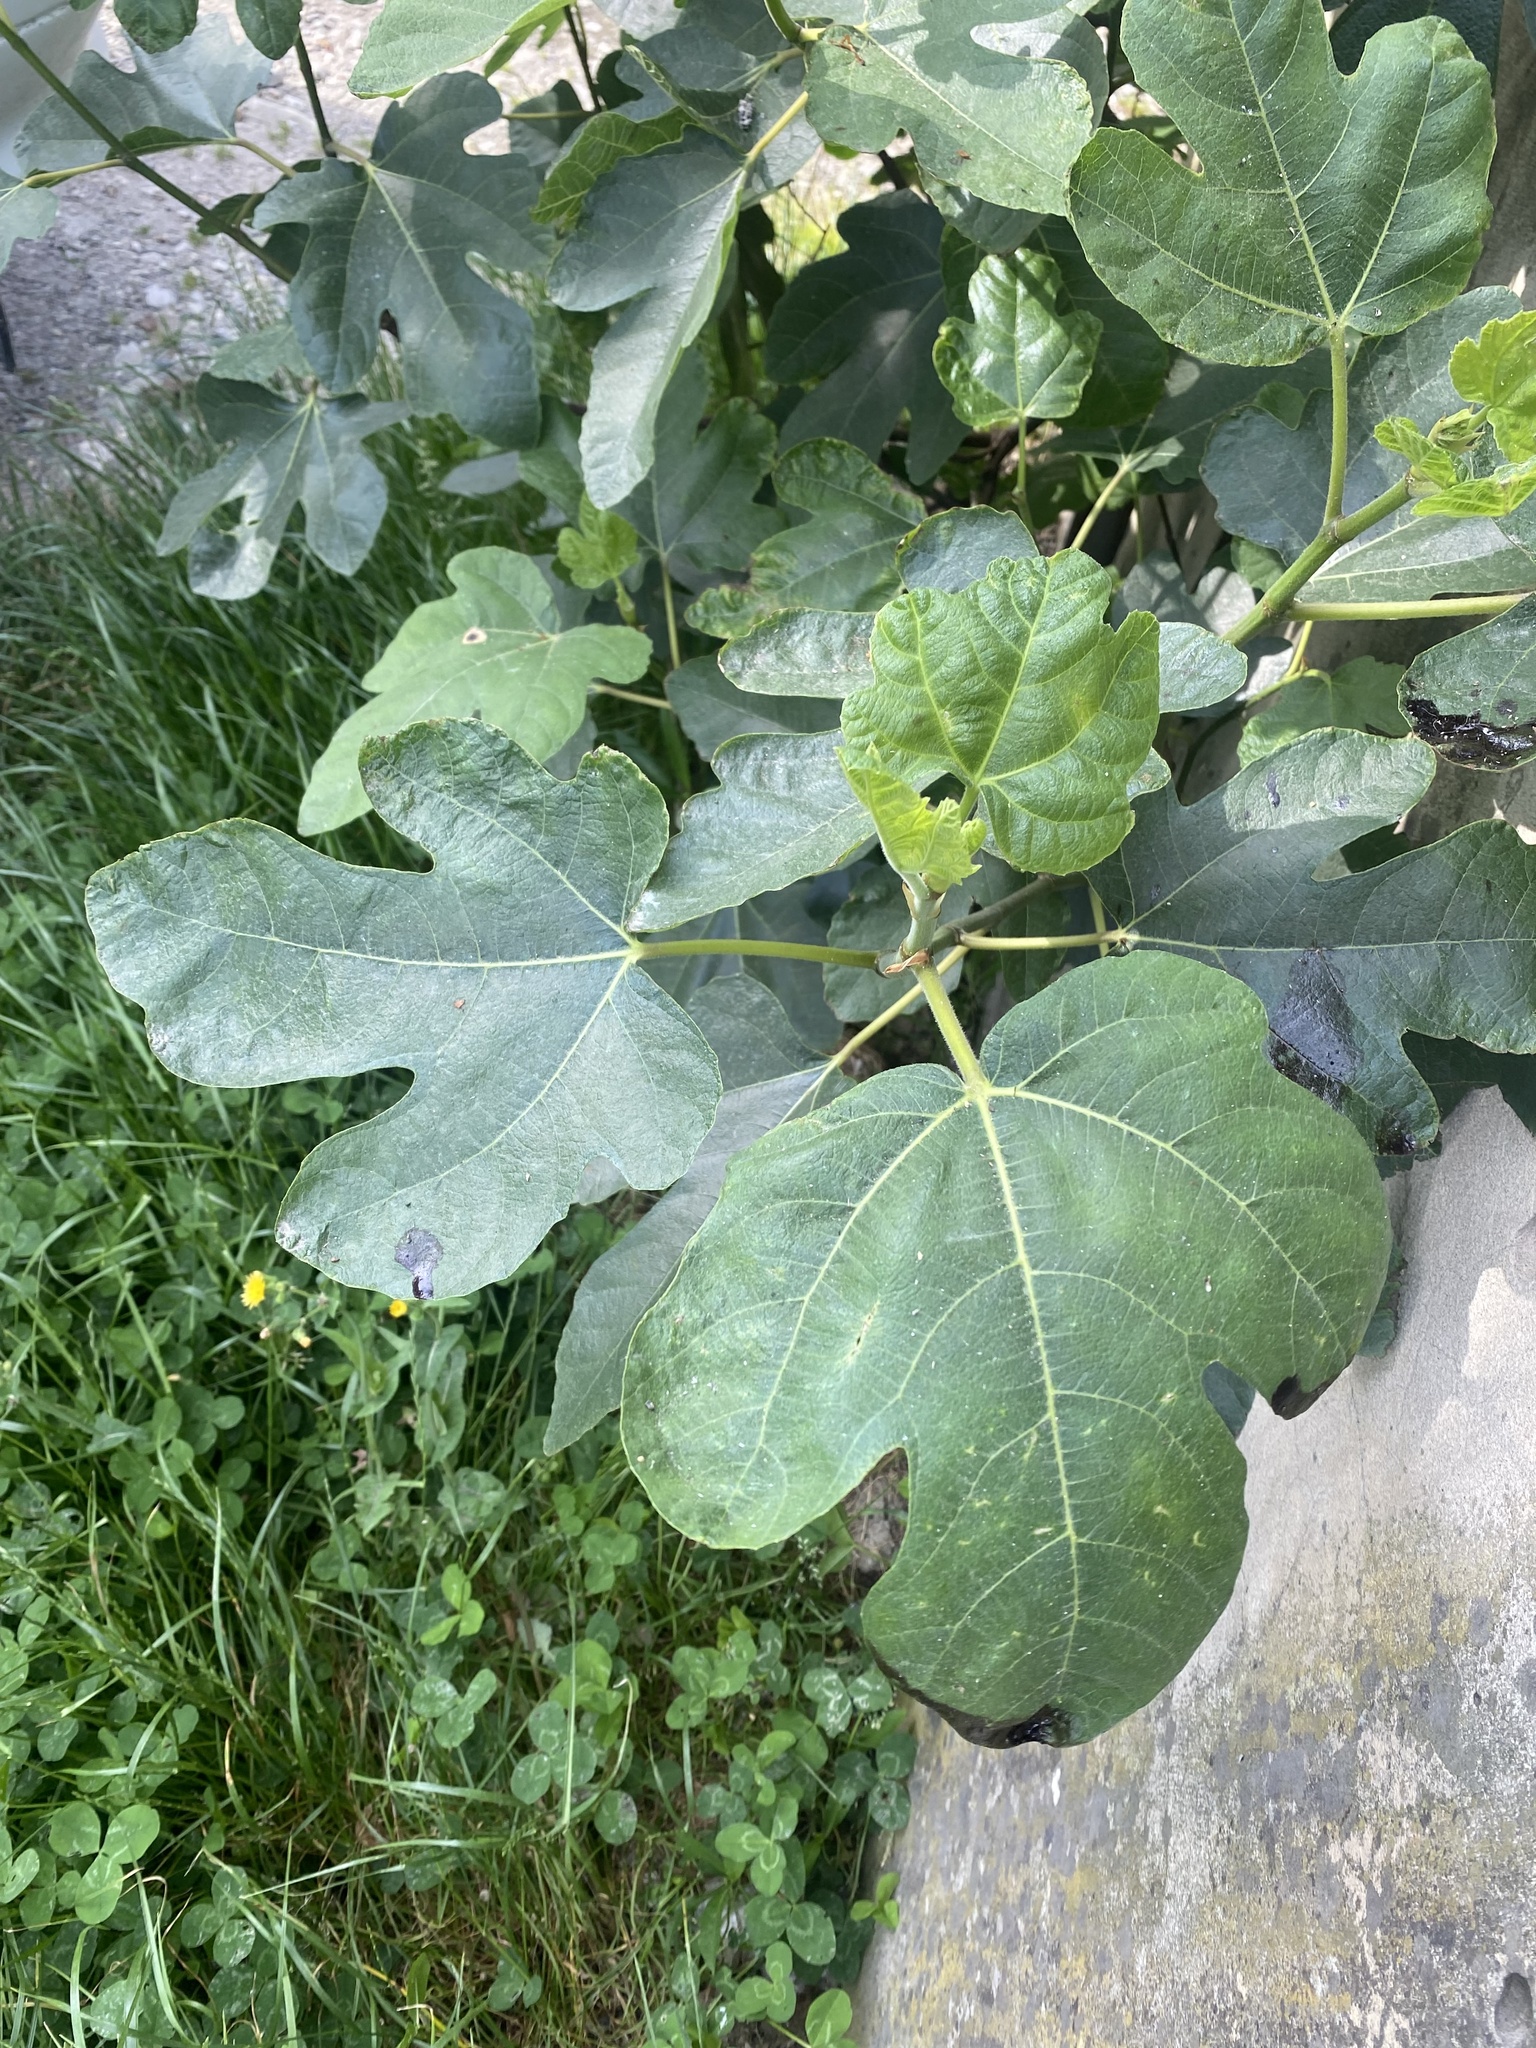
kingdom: Plantae
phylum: Tracheophyta
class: Magnoliopsida
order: Rosales
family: Moraceae
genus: Ficus
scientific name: Ficus carica
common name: Fig
